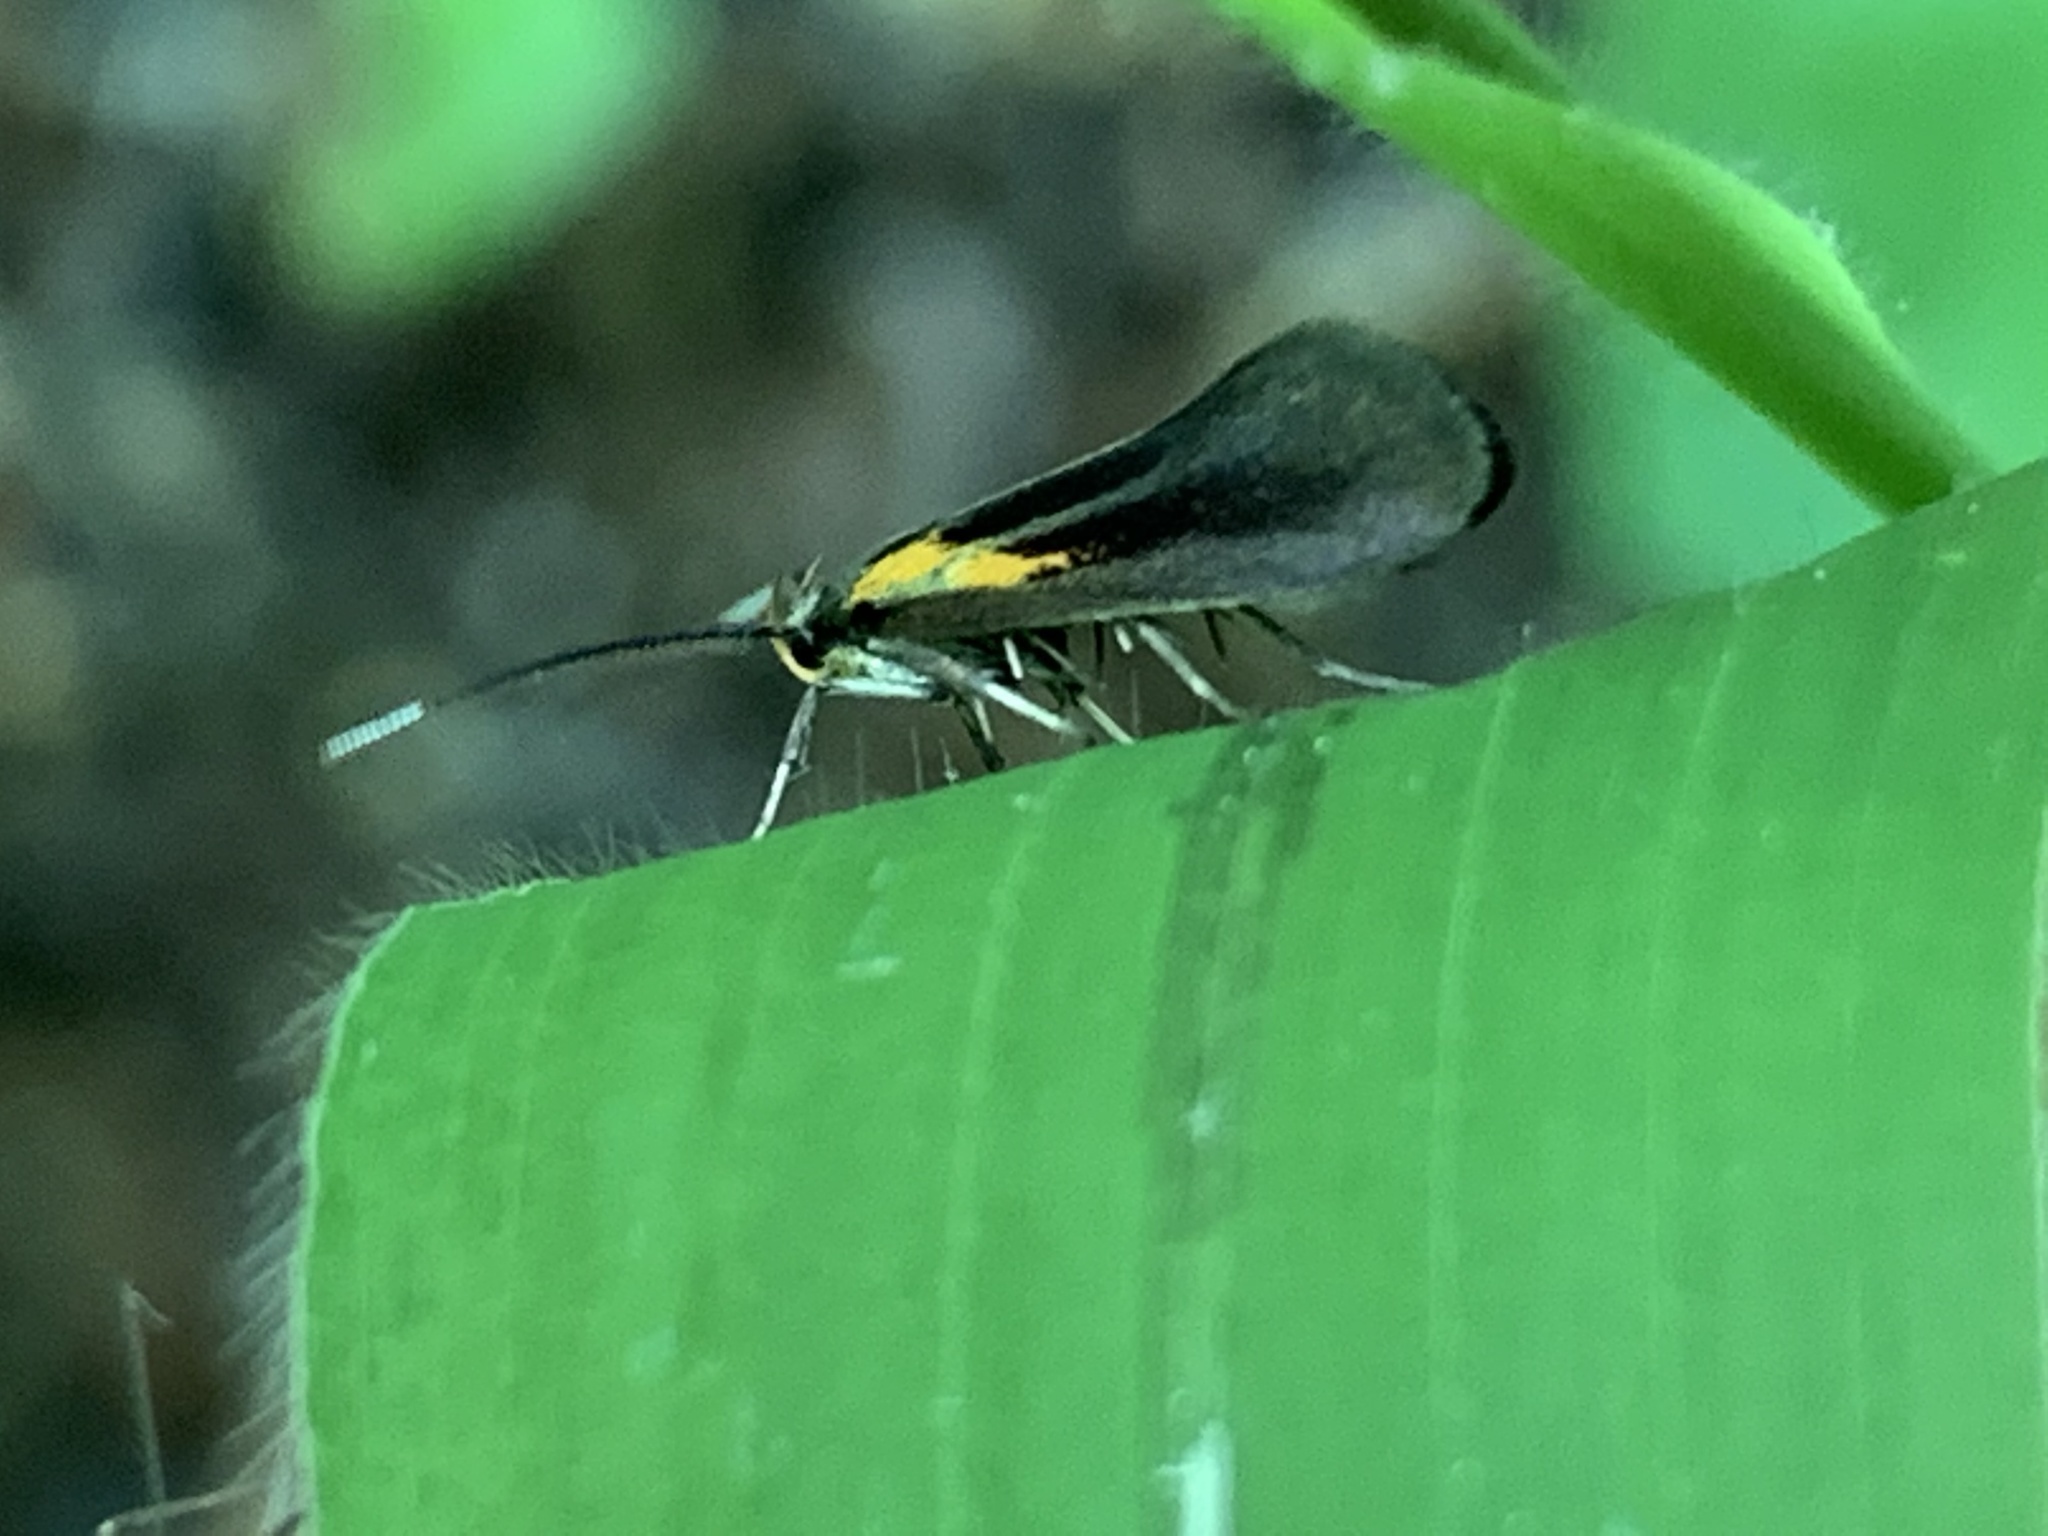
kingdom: Animalia
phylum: Arthropoda
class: Insecta
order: Lepidoptera
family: Oecophoridae
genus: Mathildana
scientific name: Mathildana newmanella
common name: Newman's mathildana moth
